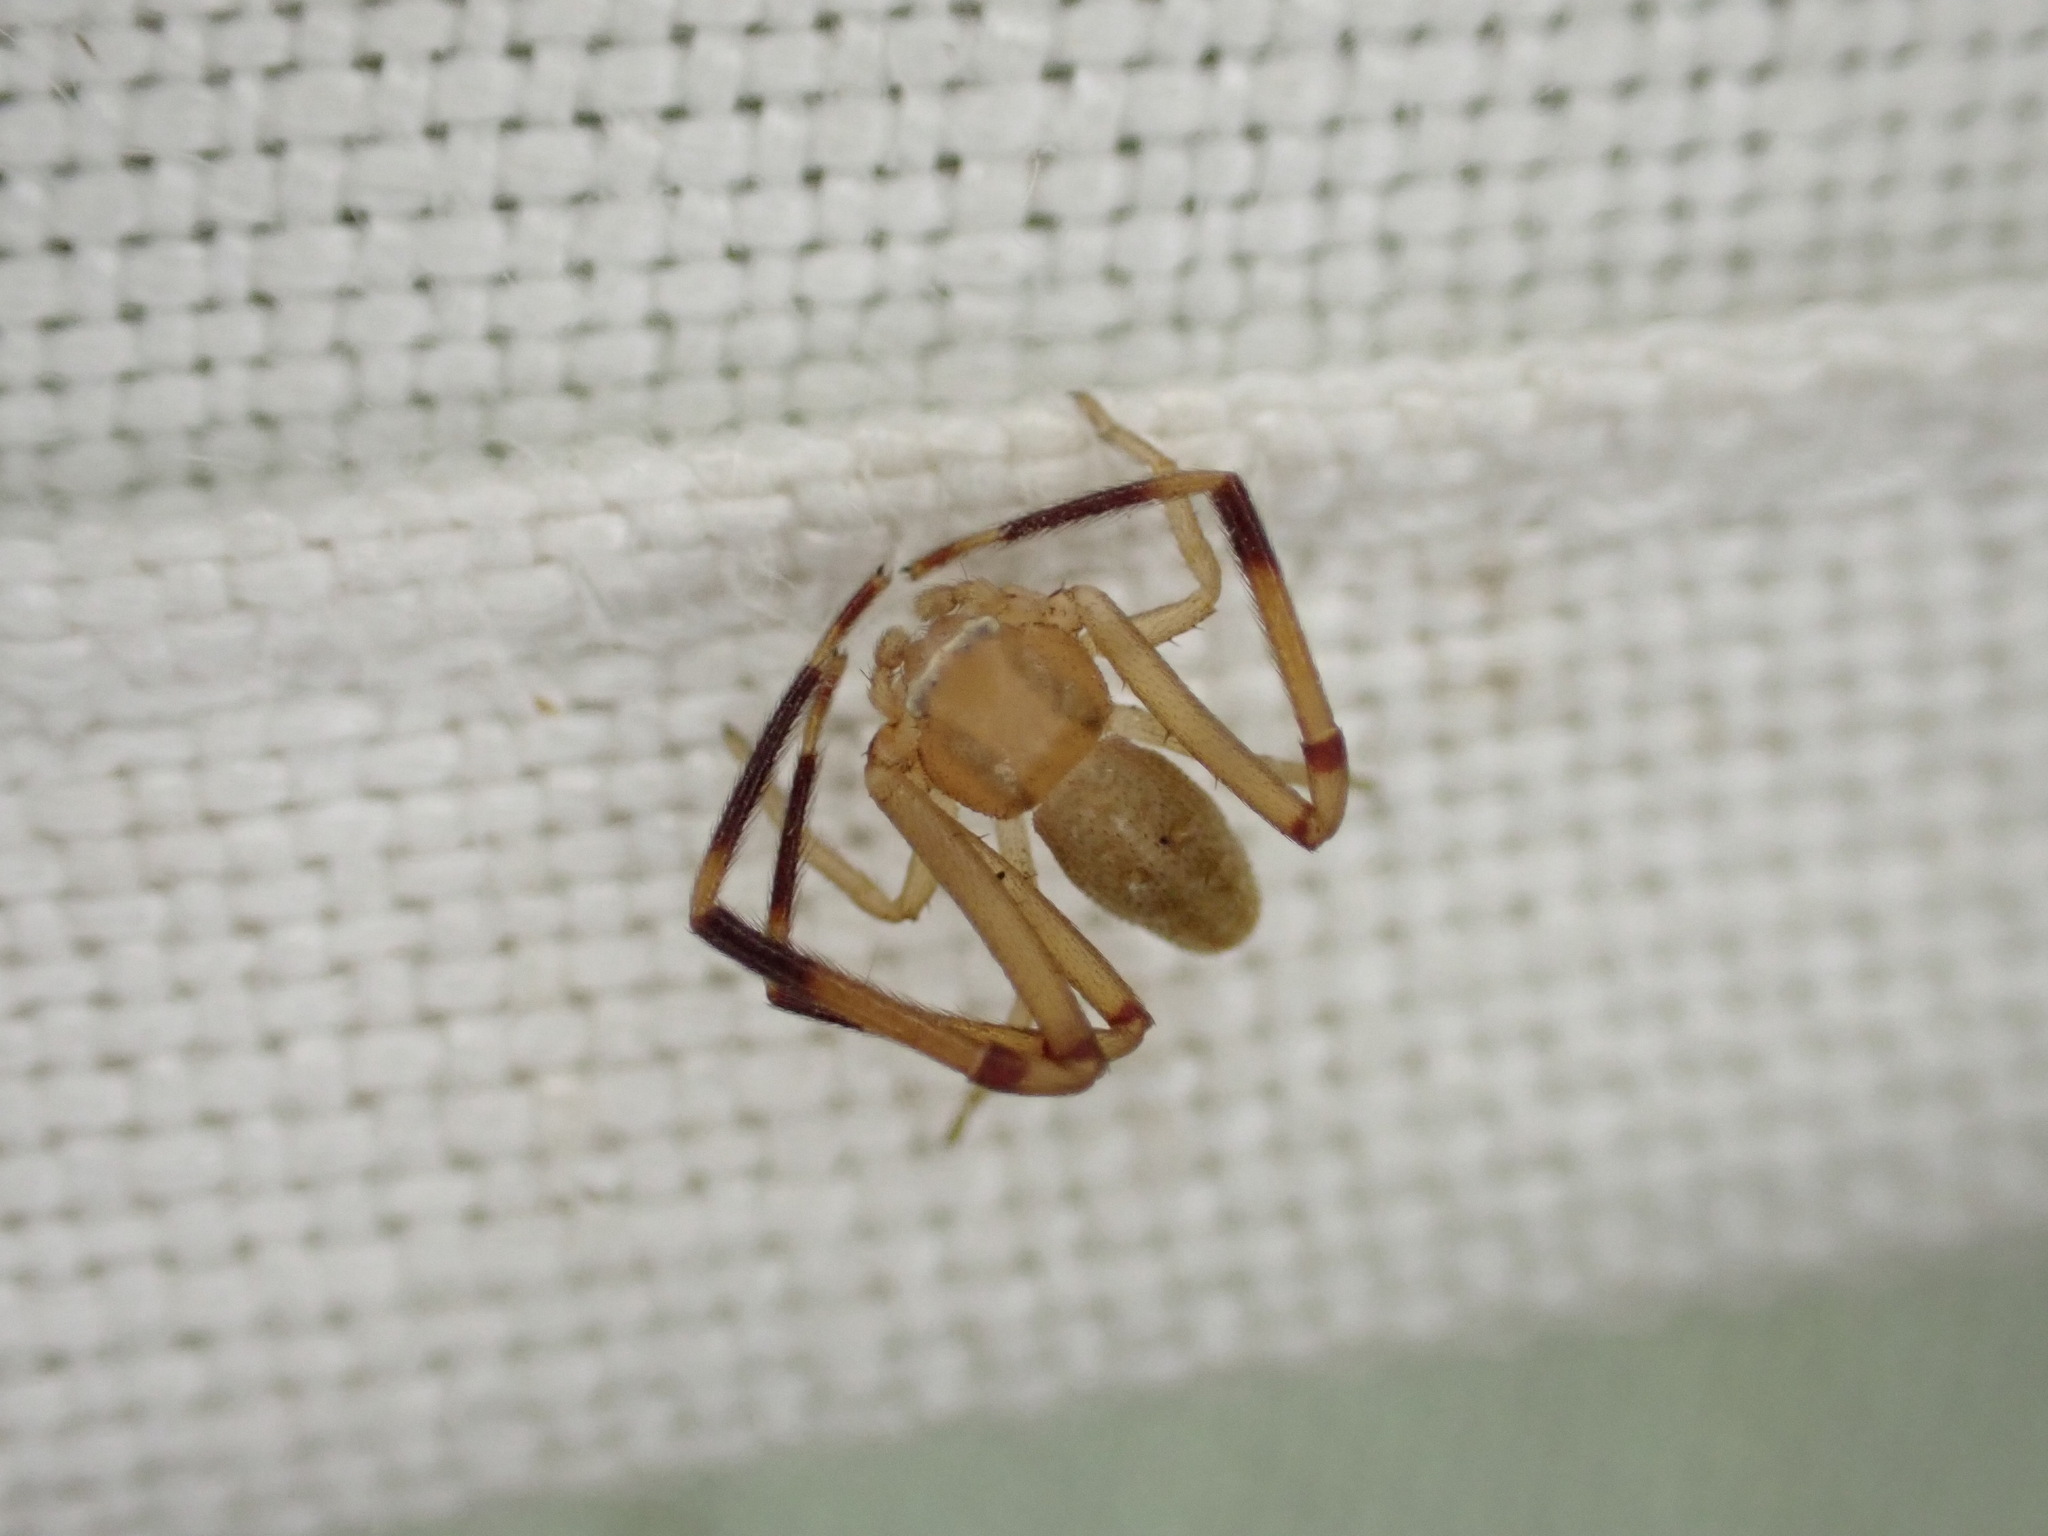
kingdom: Animalia
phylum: Arthropoda
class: Arachnida
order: Araneae
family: Thomisidae
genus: Runcinia
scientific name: Runcinia grammica
